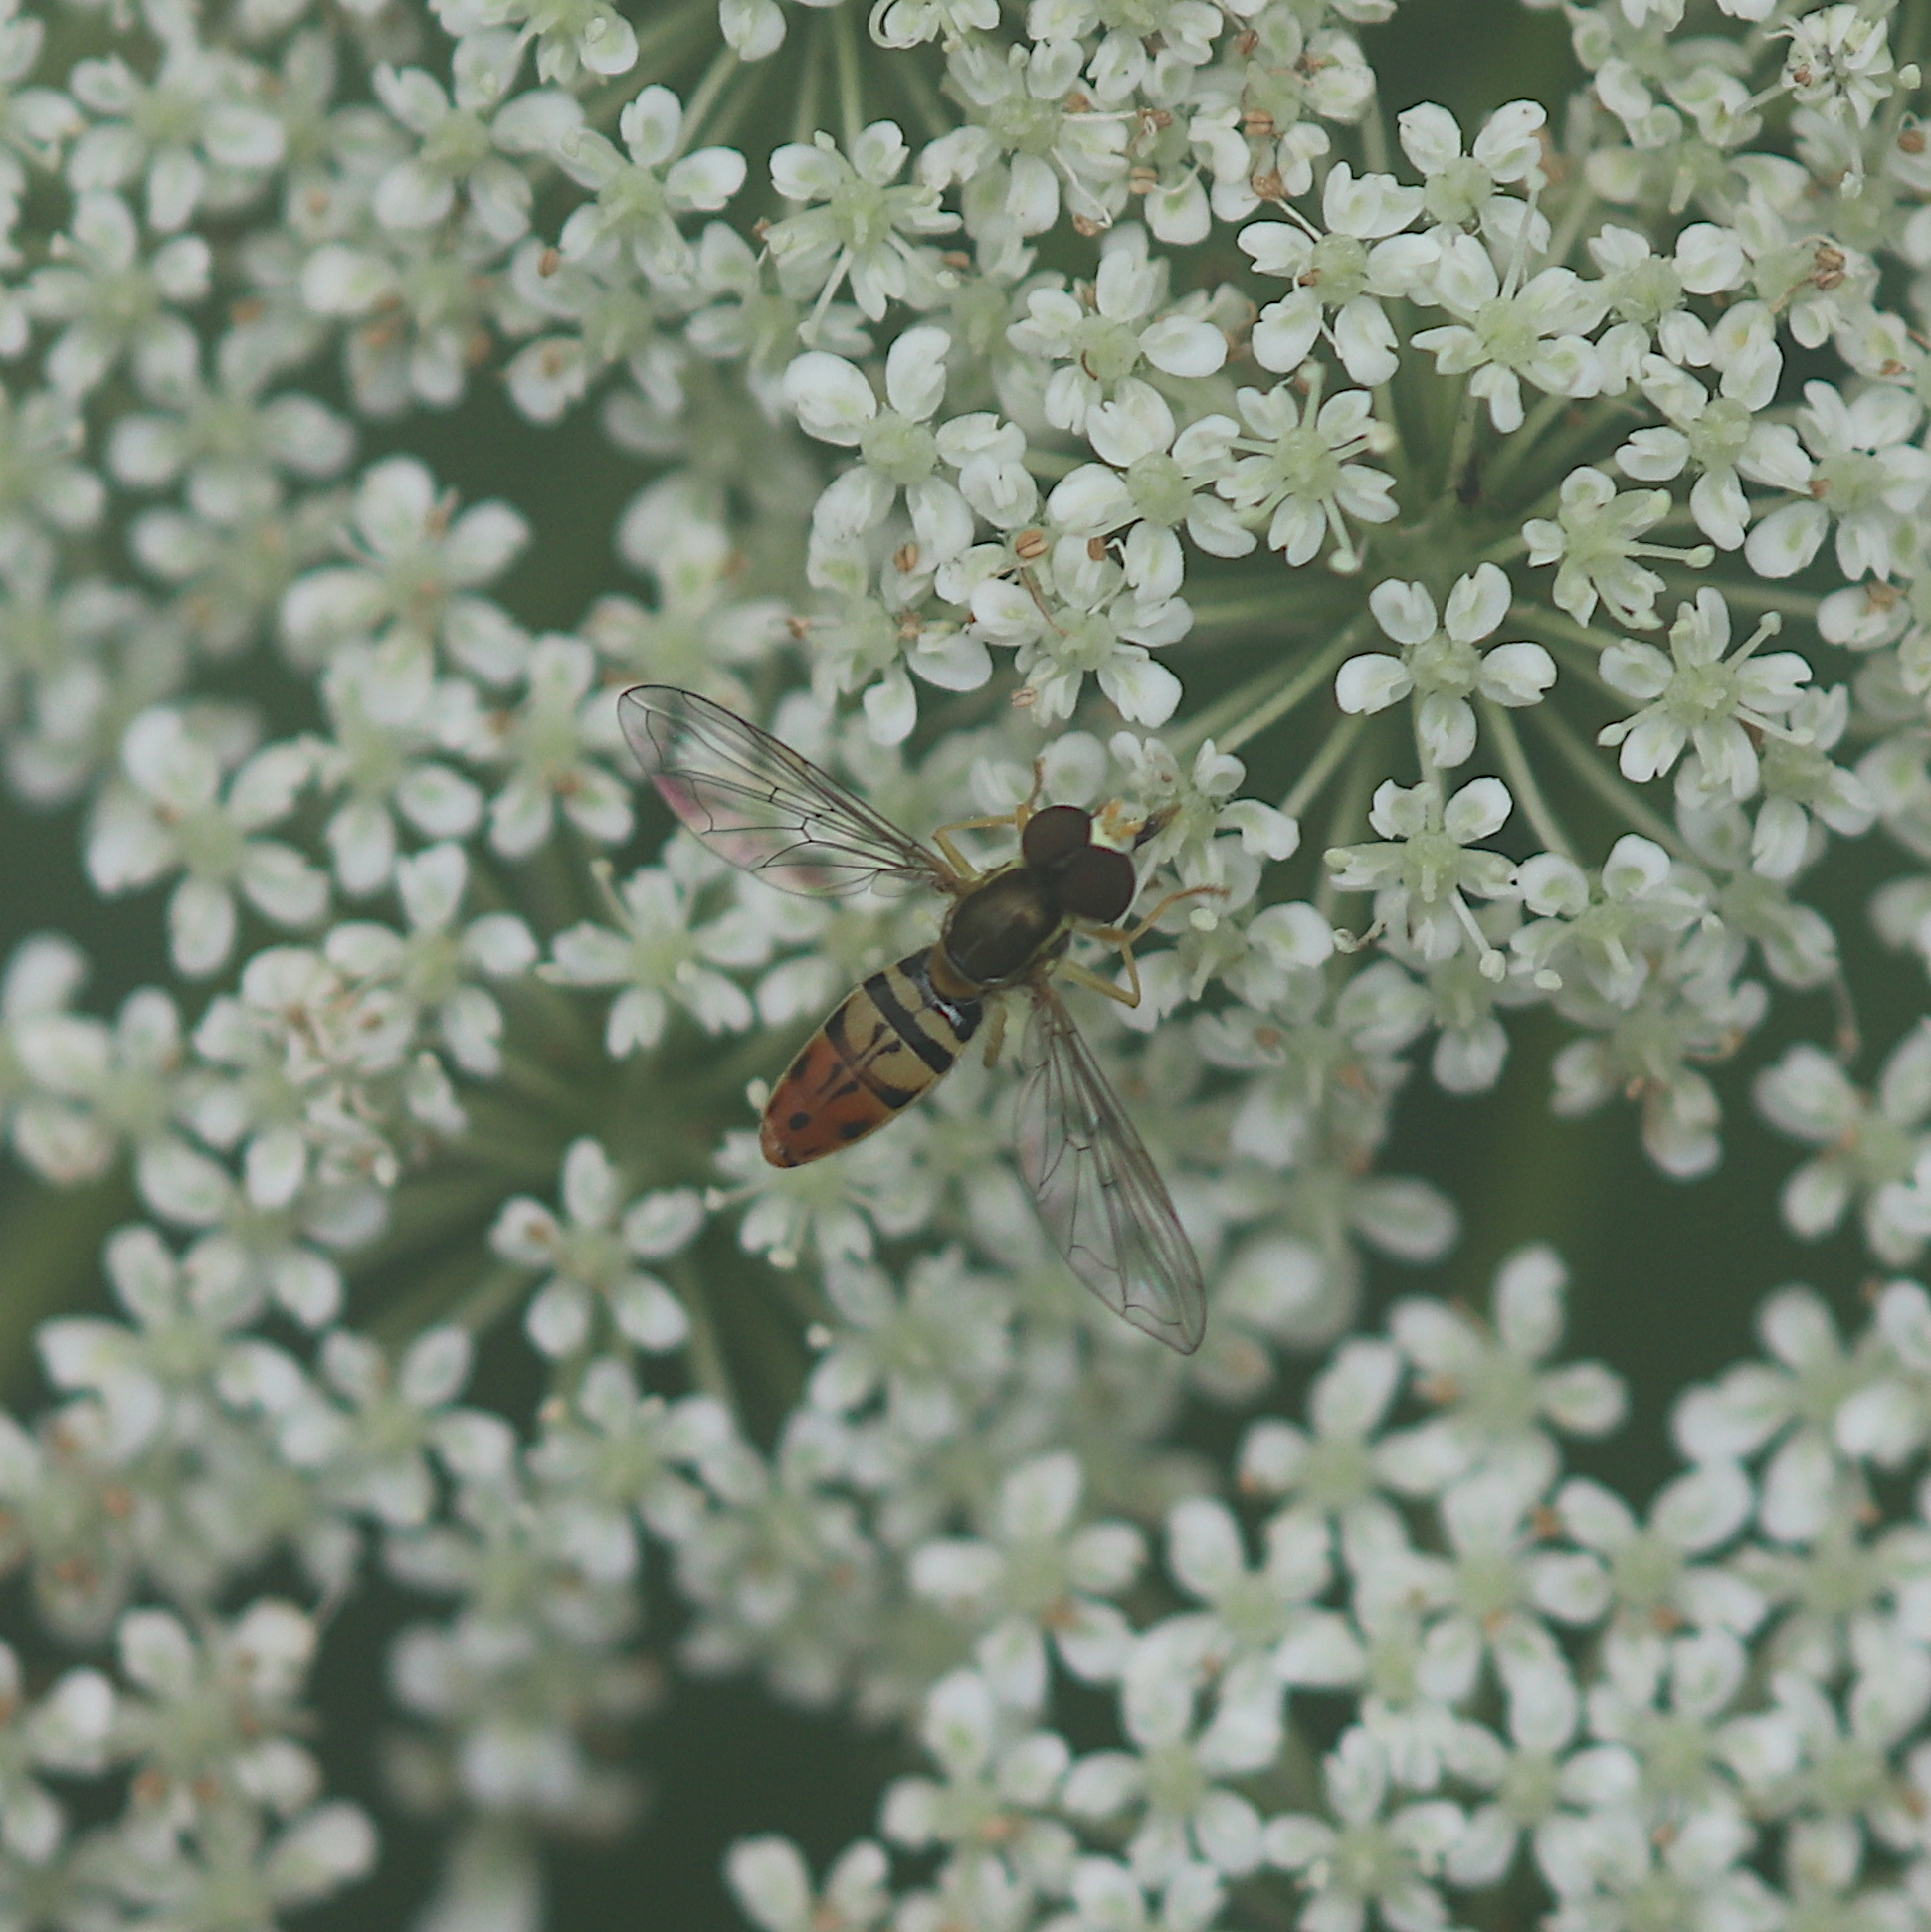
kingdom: Animalia
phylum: Arthropoda
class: Insecta
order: Diptera
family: Syrphidae
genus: Toxomerus
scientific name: Toxomerus marginatus
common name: Syrphid fly
